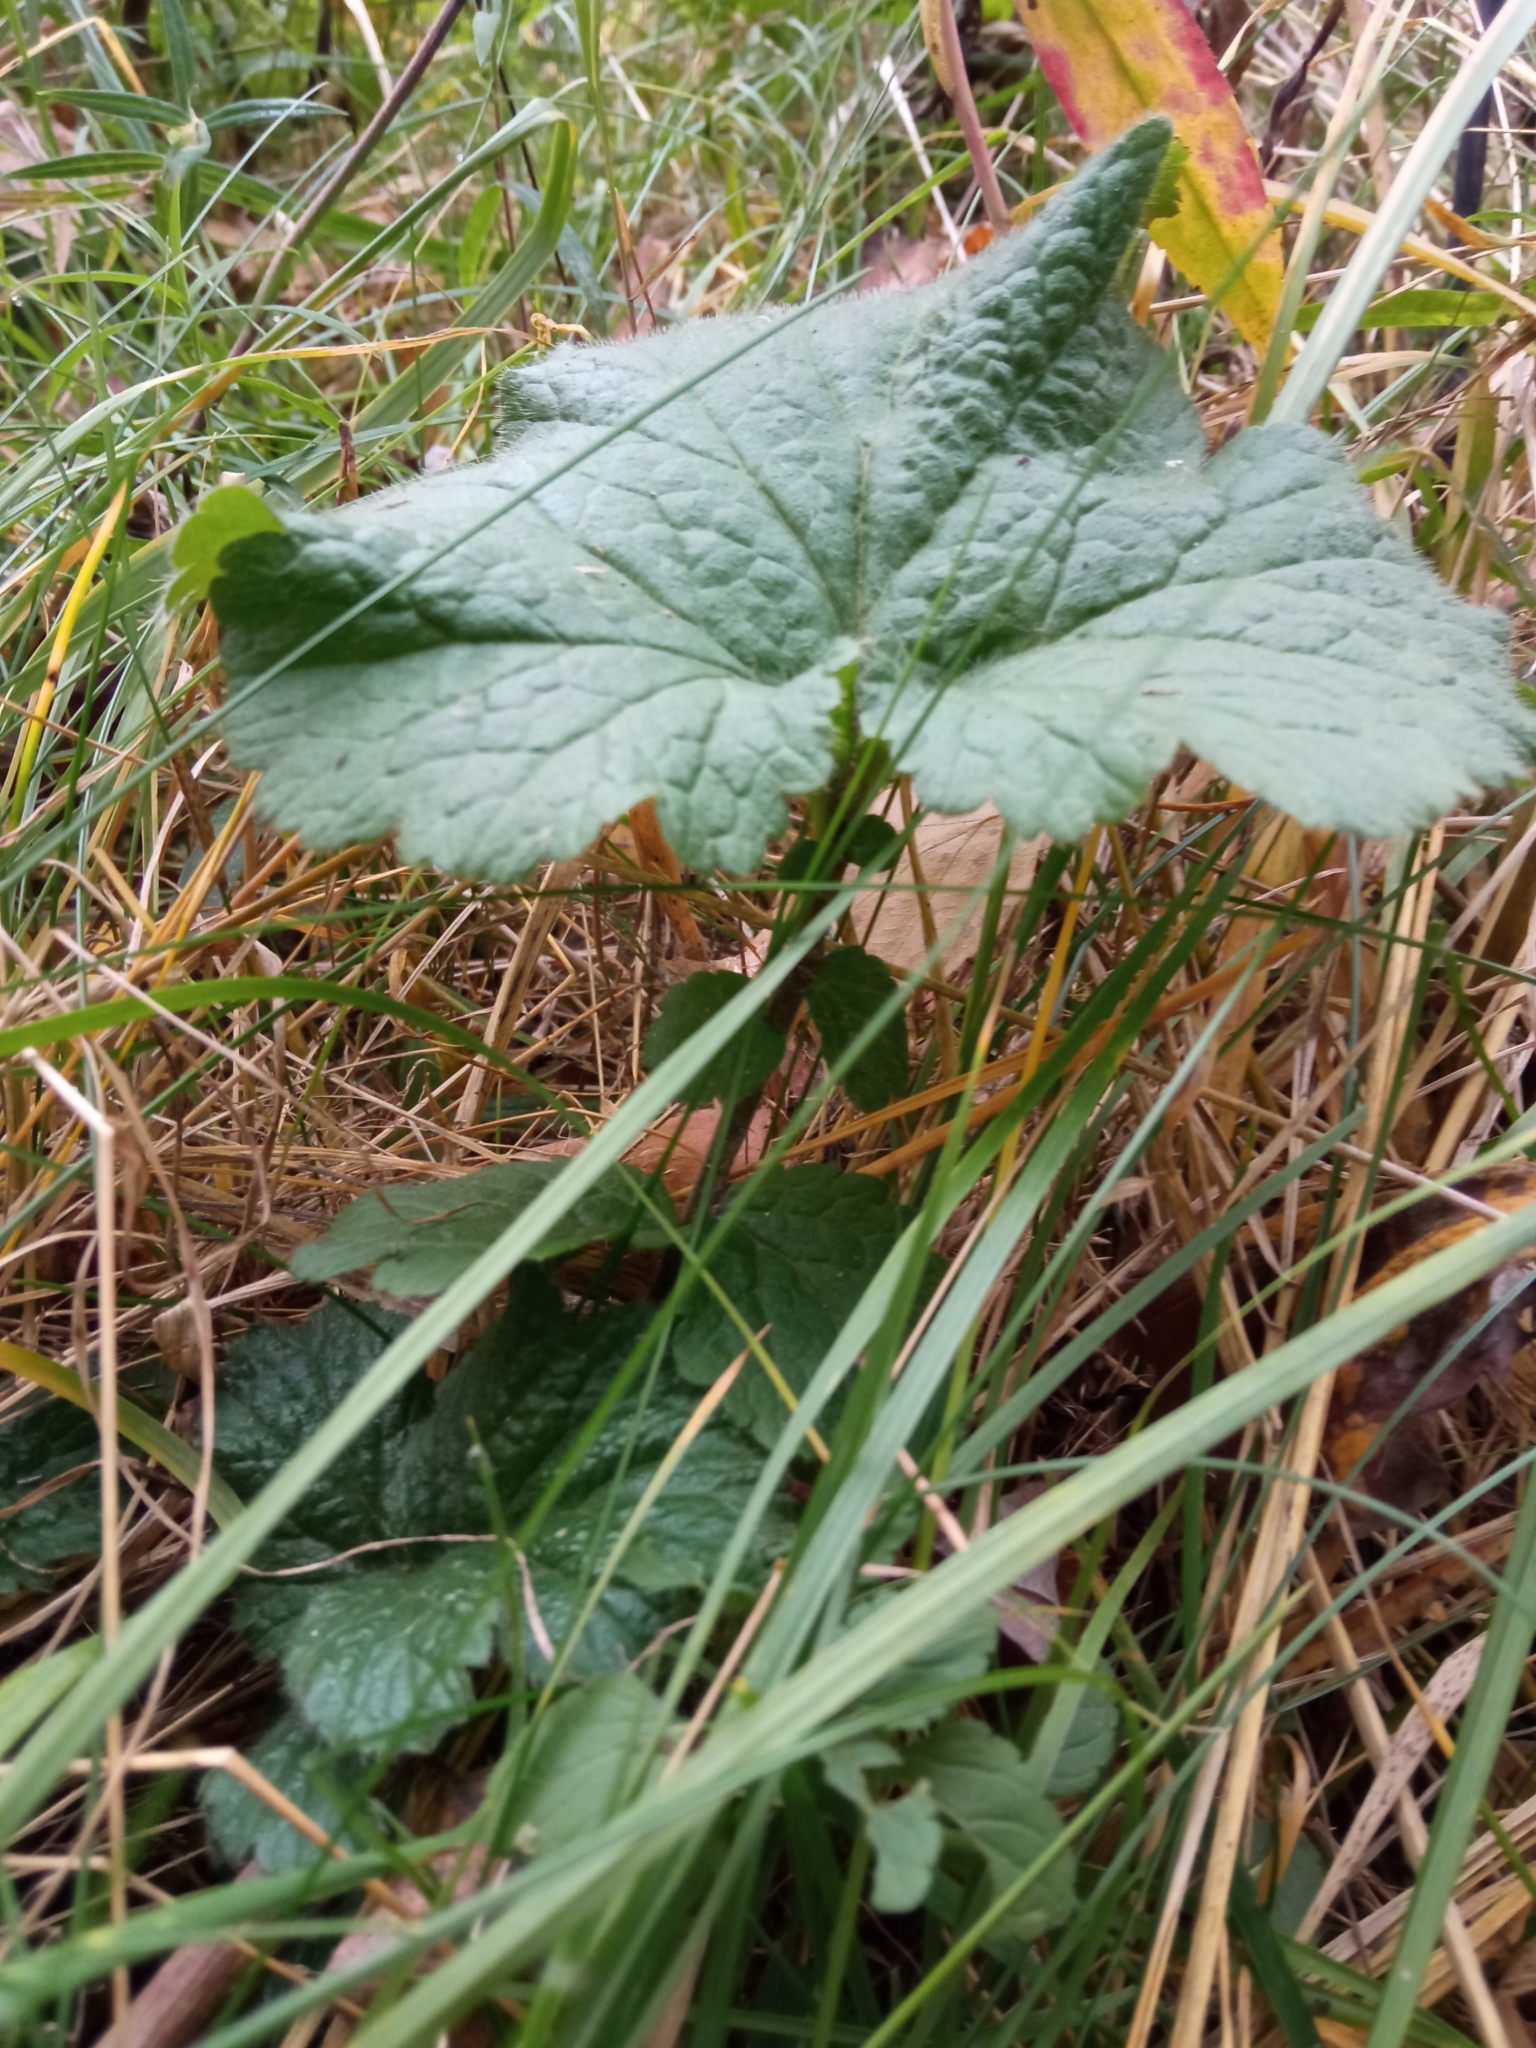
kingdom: Plantae
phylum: Tracheophyta
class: Magnoliopsida
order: Rosales
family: Rosaceae
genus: Geum
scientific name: Geum macrophyllum
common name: Large-leaved avens
